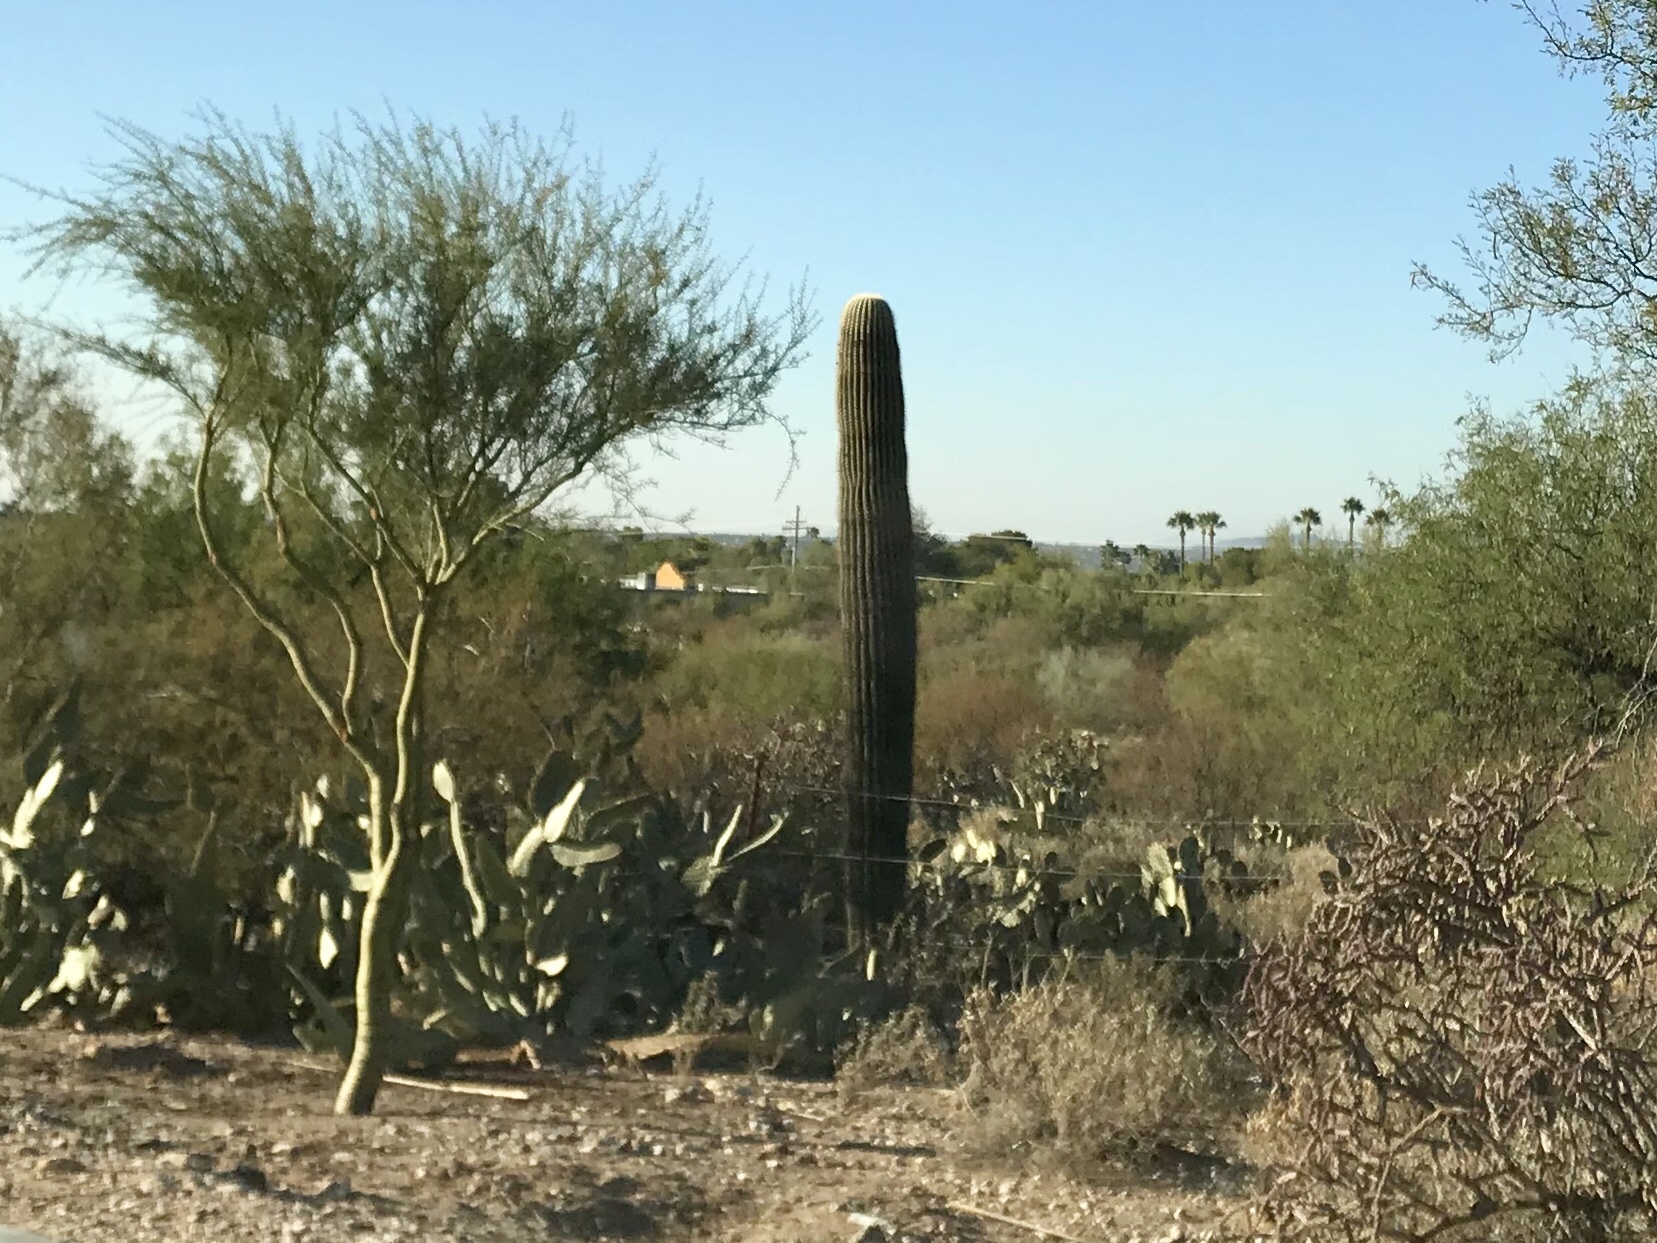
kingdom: Plantae
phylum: Tracheophyta
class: Magnoliopsida
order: Caryophyllales
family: Cactaceae
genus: Carnegiea
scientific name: Carnegiea gigantea
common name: Saguaro
